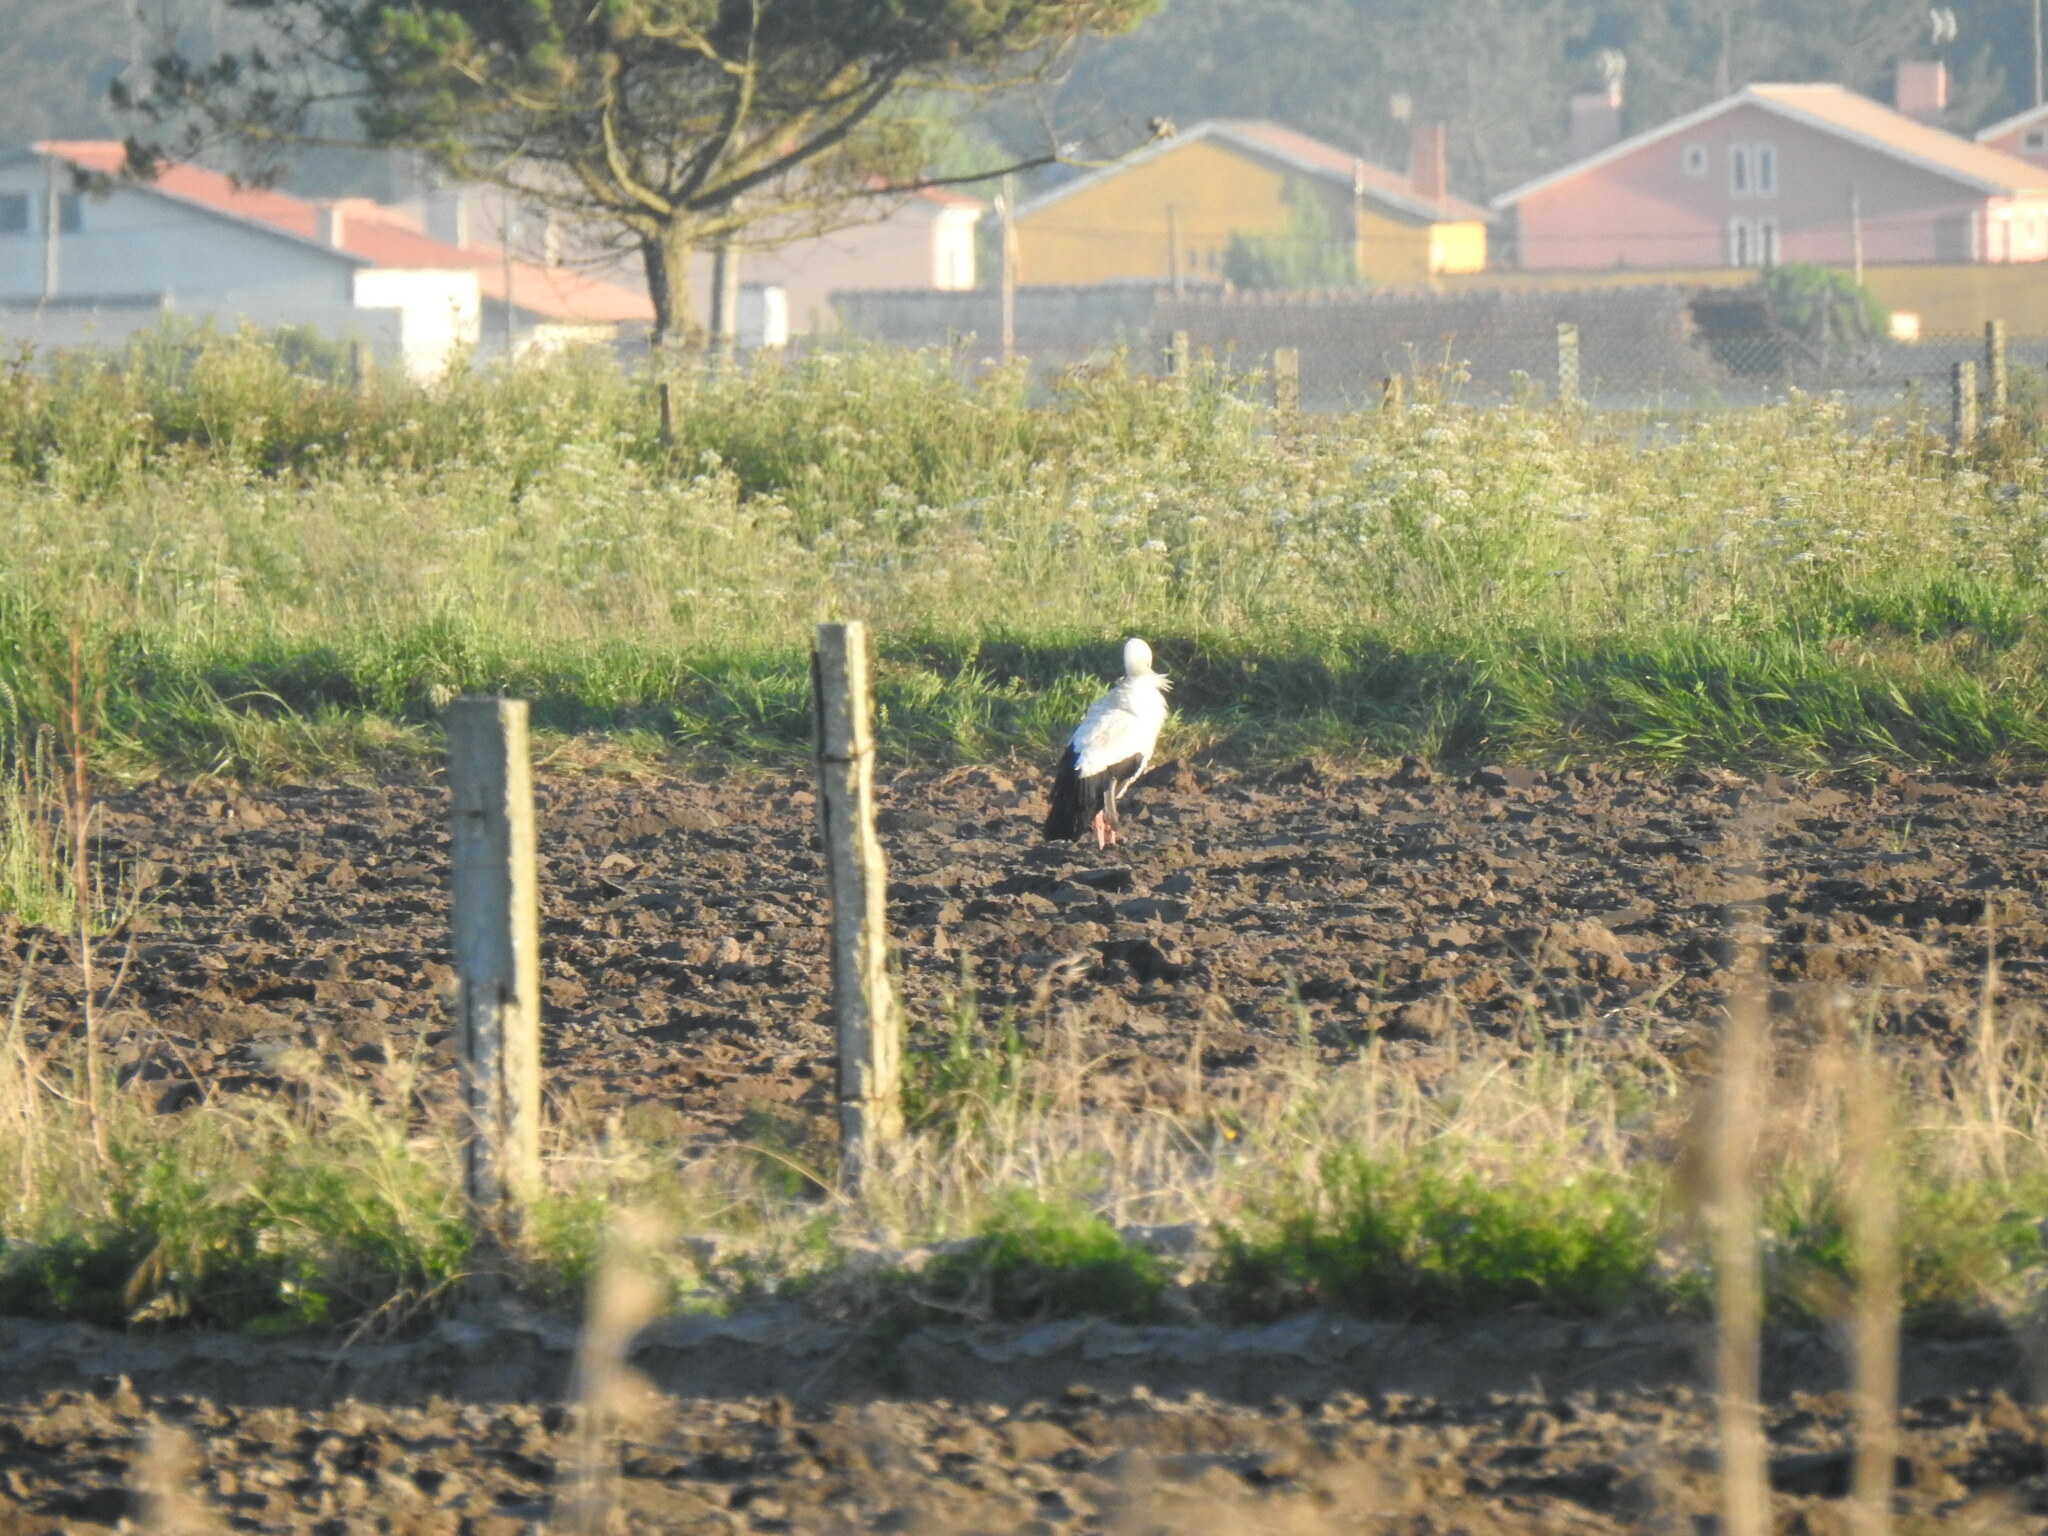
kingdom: Animalia
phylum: Chordata
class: Aves
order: Ciconiiformes
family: Ciconiidae
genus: Ciconia
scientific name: Ciconia ciconia
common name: White stork
